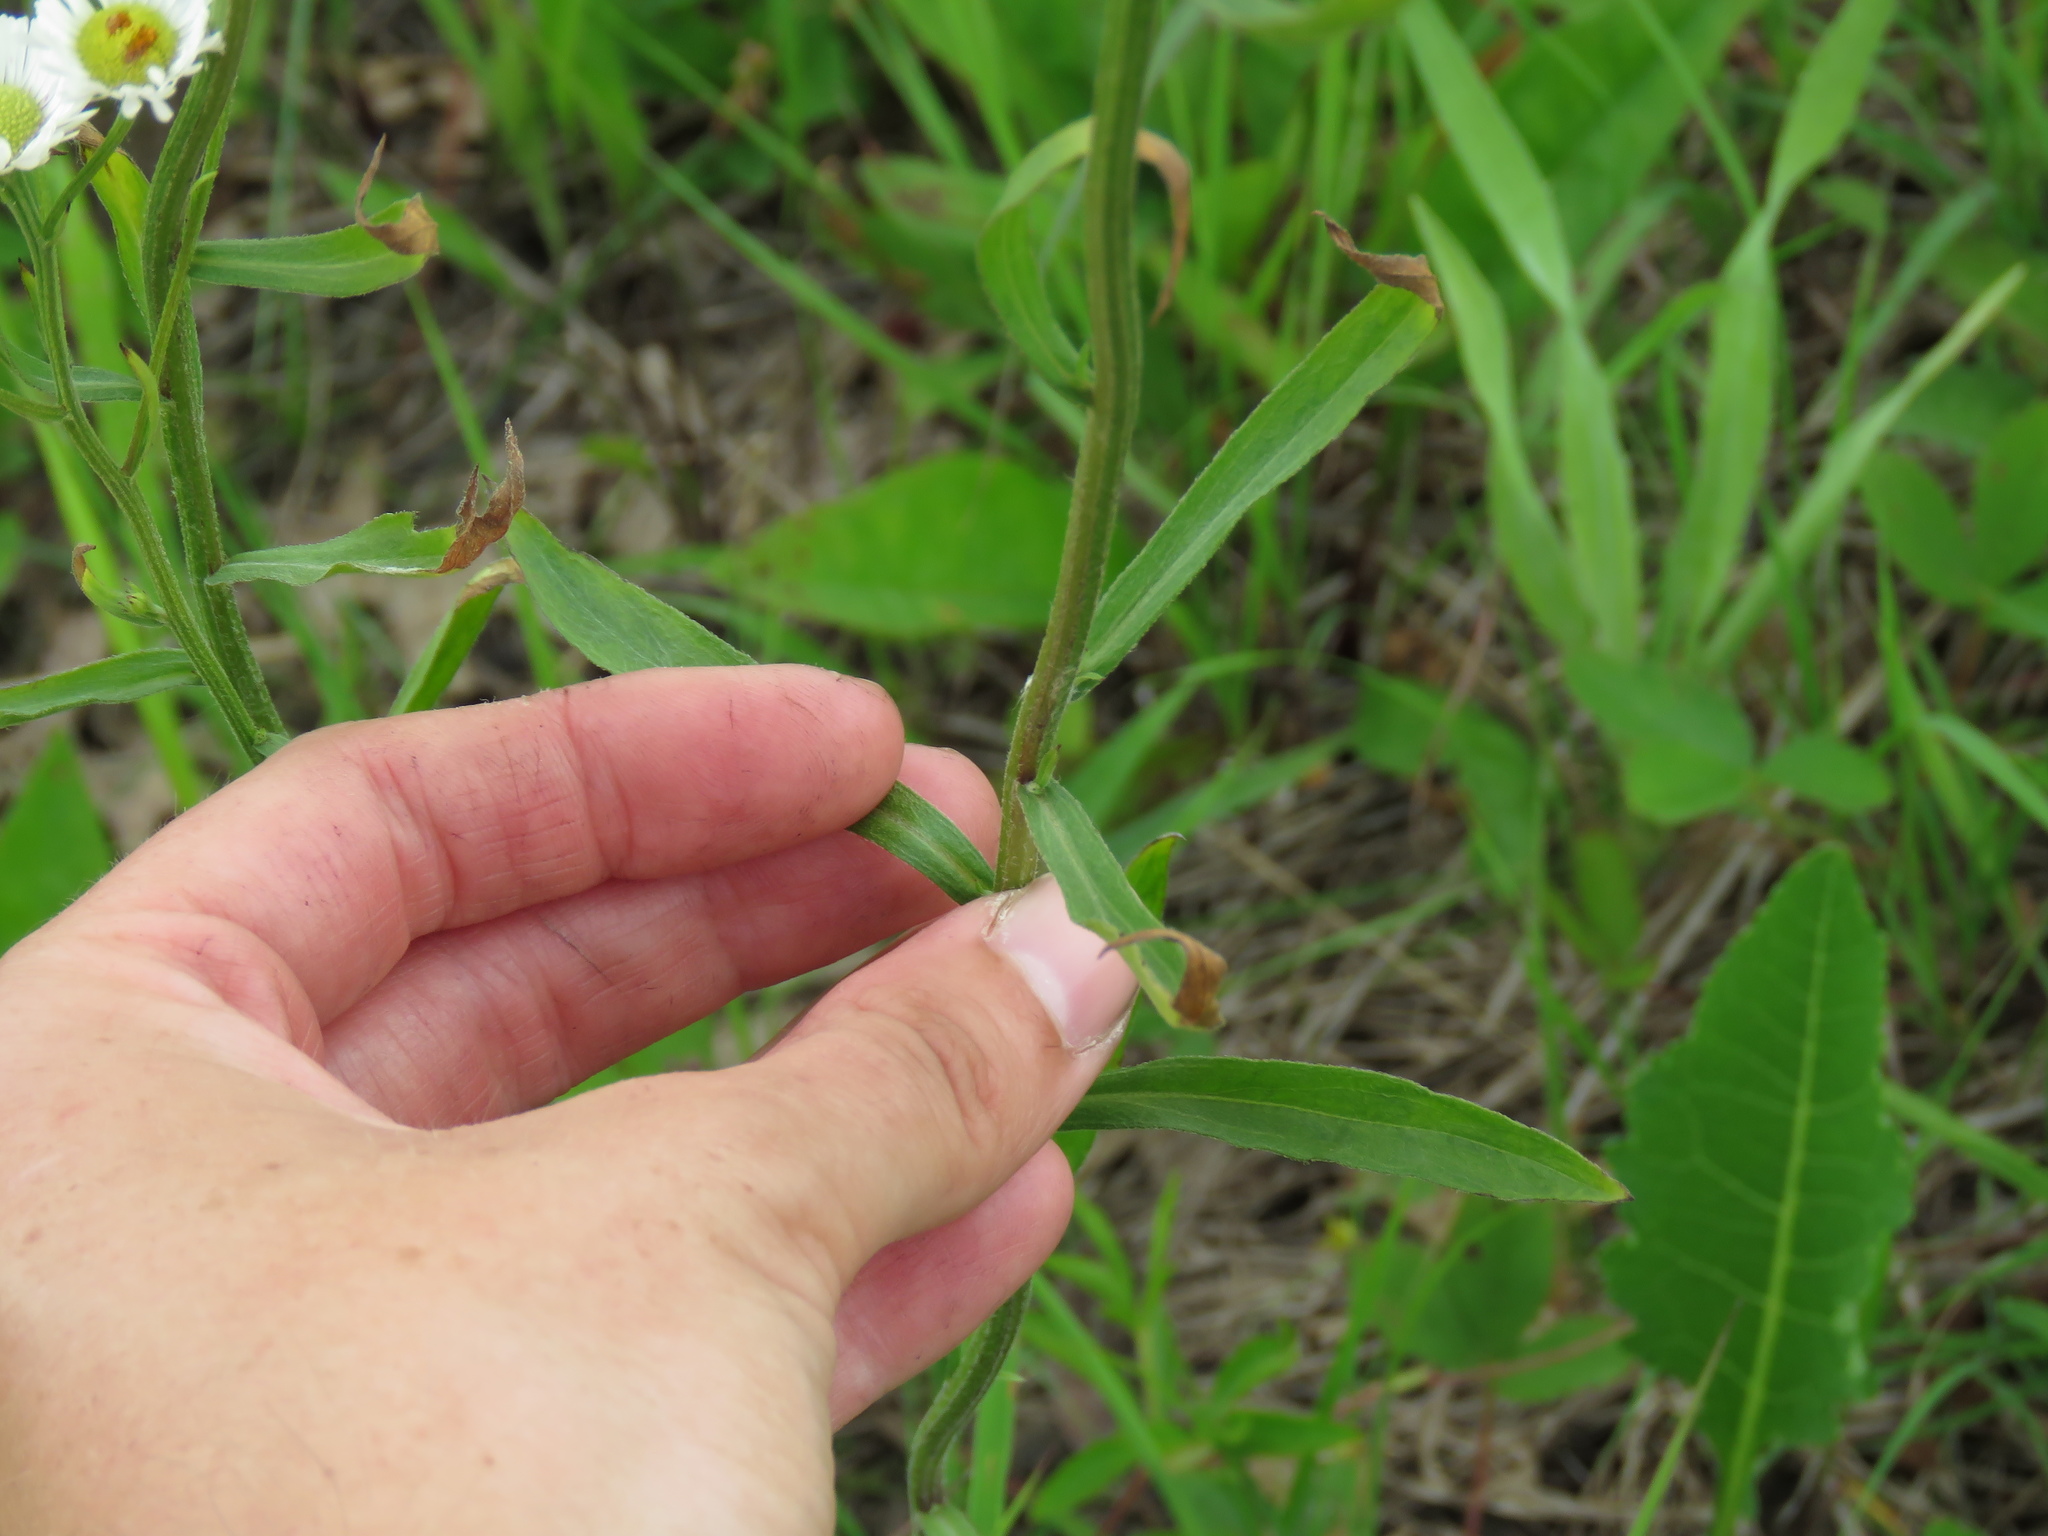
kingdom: Plantae
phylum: Tracheophyta
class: Magnoliopsida
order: Asterales
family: Asteraceae
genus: Erigeron
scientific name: Erigeron strigosus
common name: Common eastern fleabane
